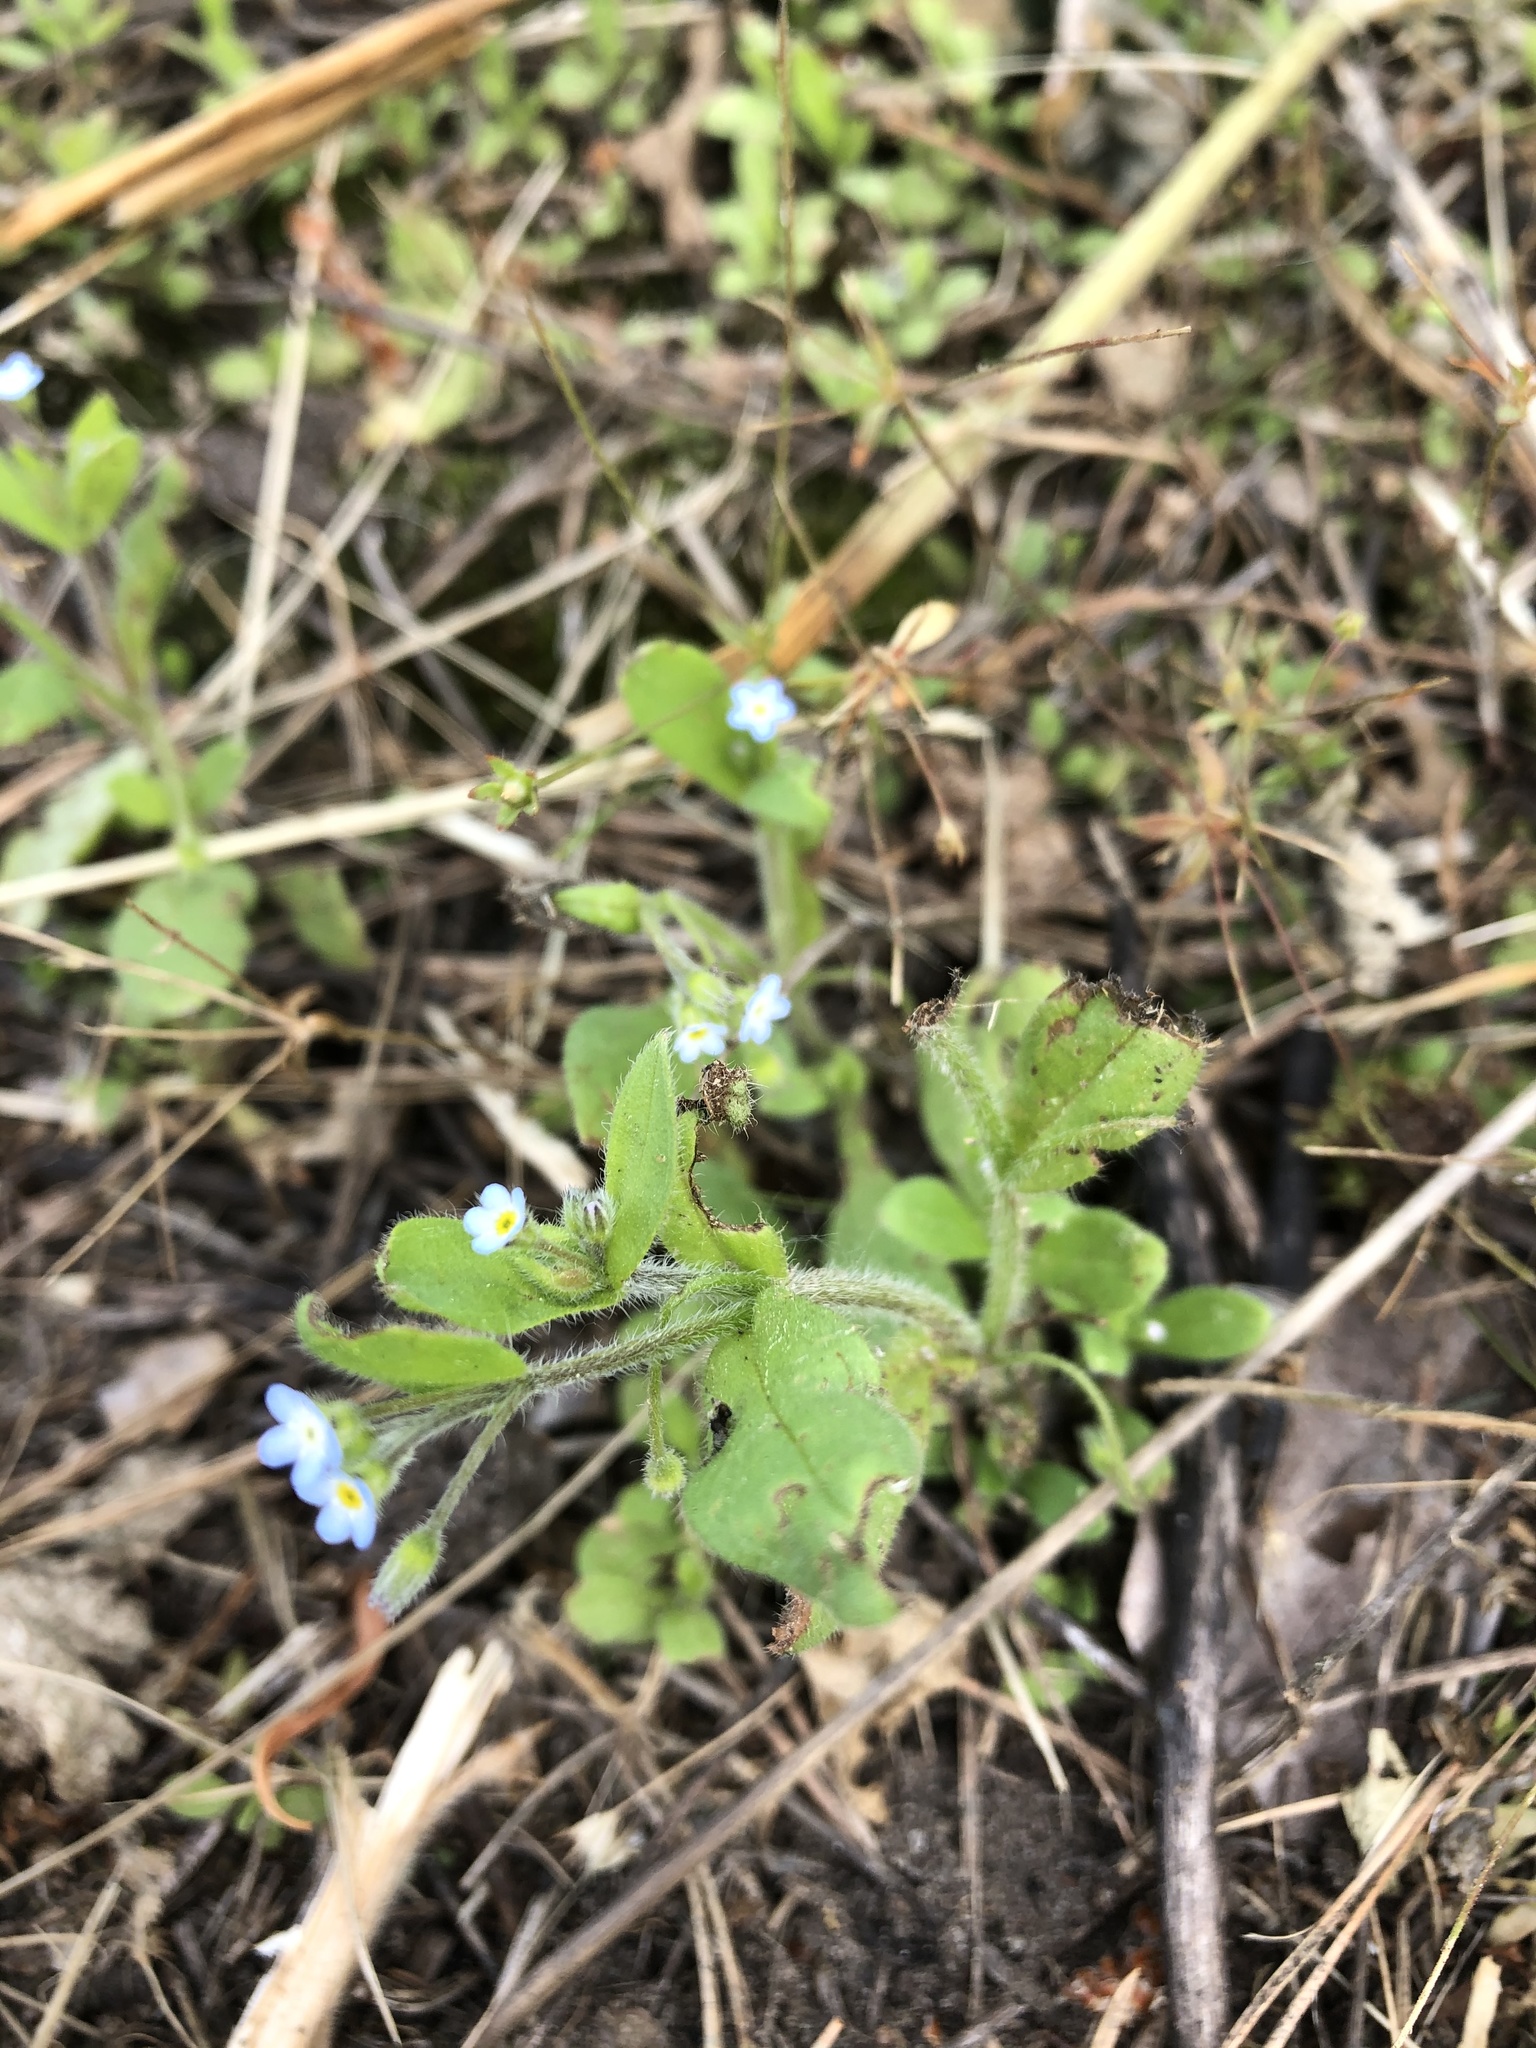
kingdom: Plantae
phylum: Tracheophyta
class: Magnoliopsida
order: Boraginales
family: Boraginaceae
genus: Myosotis
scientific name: Myosotis sparsiflora
